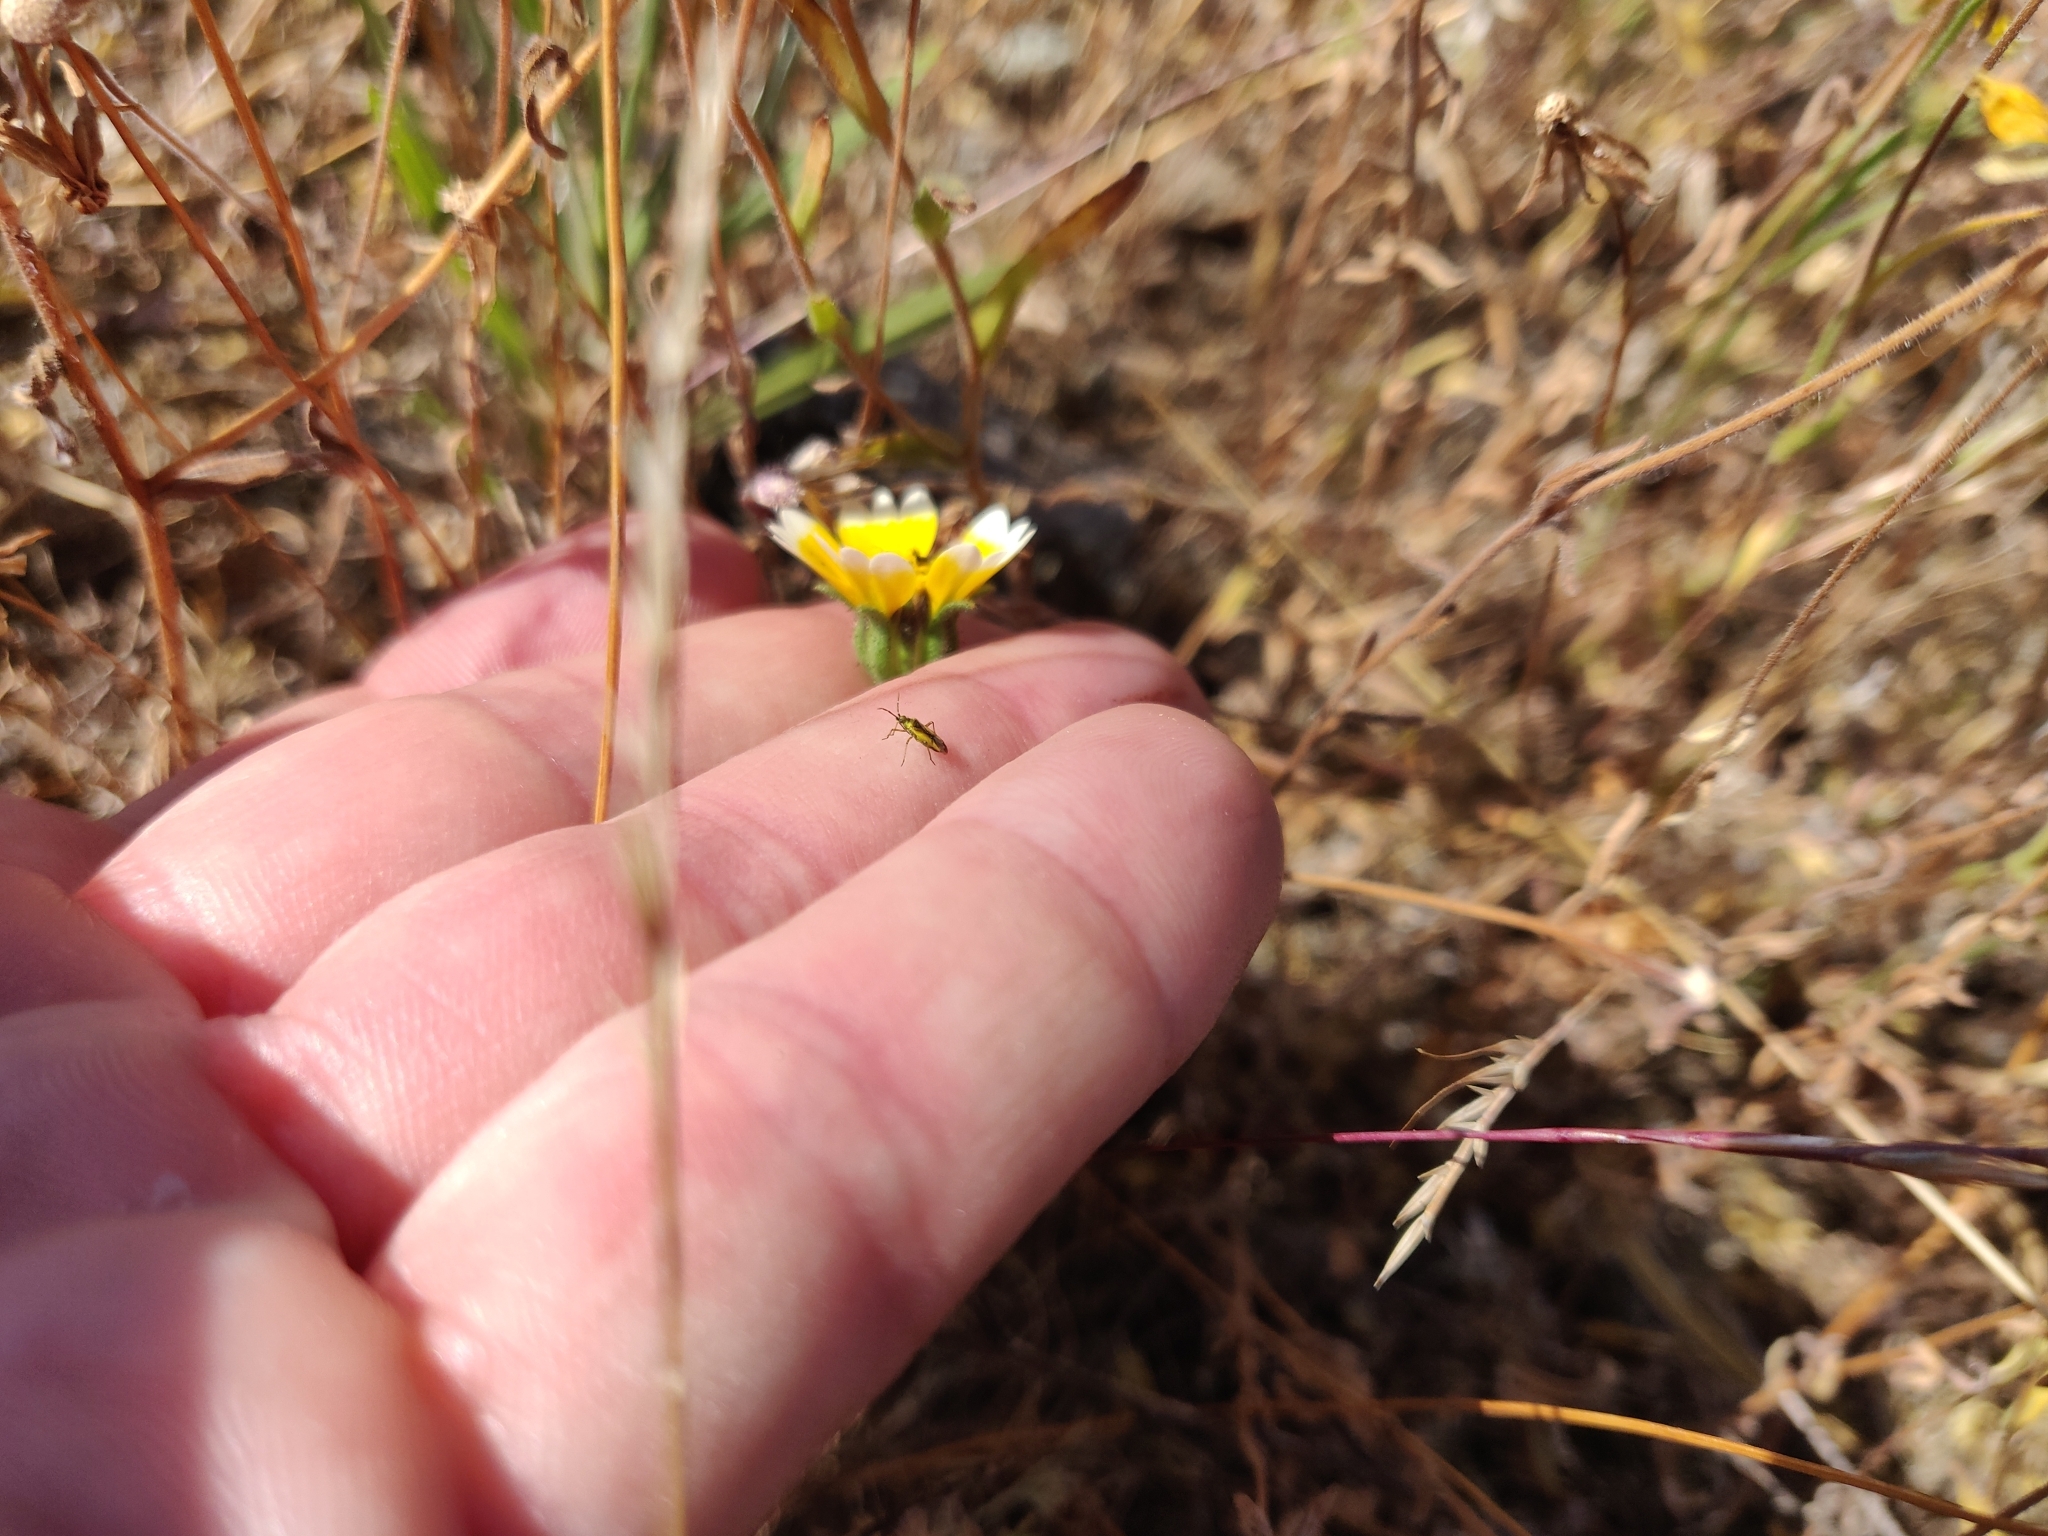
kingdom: Plantae
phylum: Tracheophyta
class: Magnoliopsida
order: Asterales
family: Asteraceae
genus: Layia
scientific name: Layia platyglossa
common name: Tidy-tips
